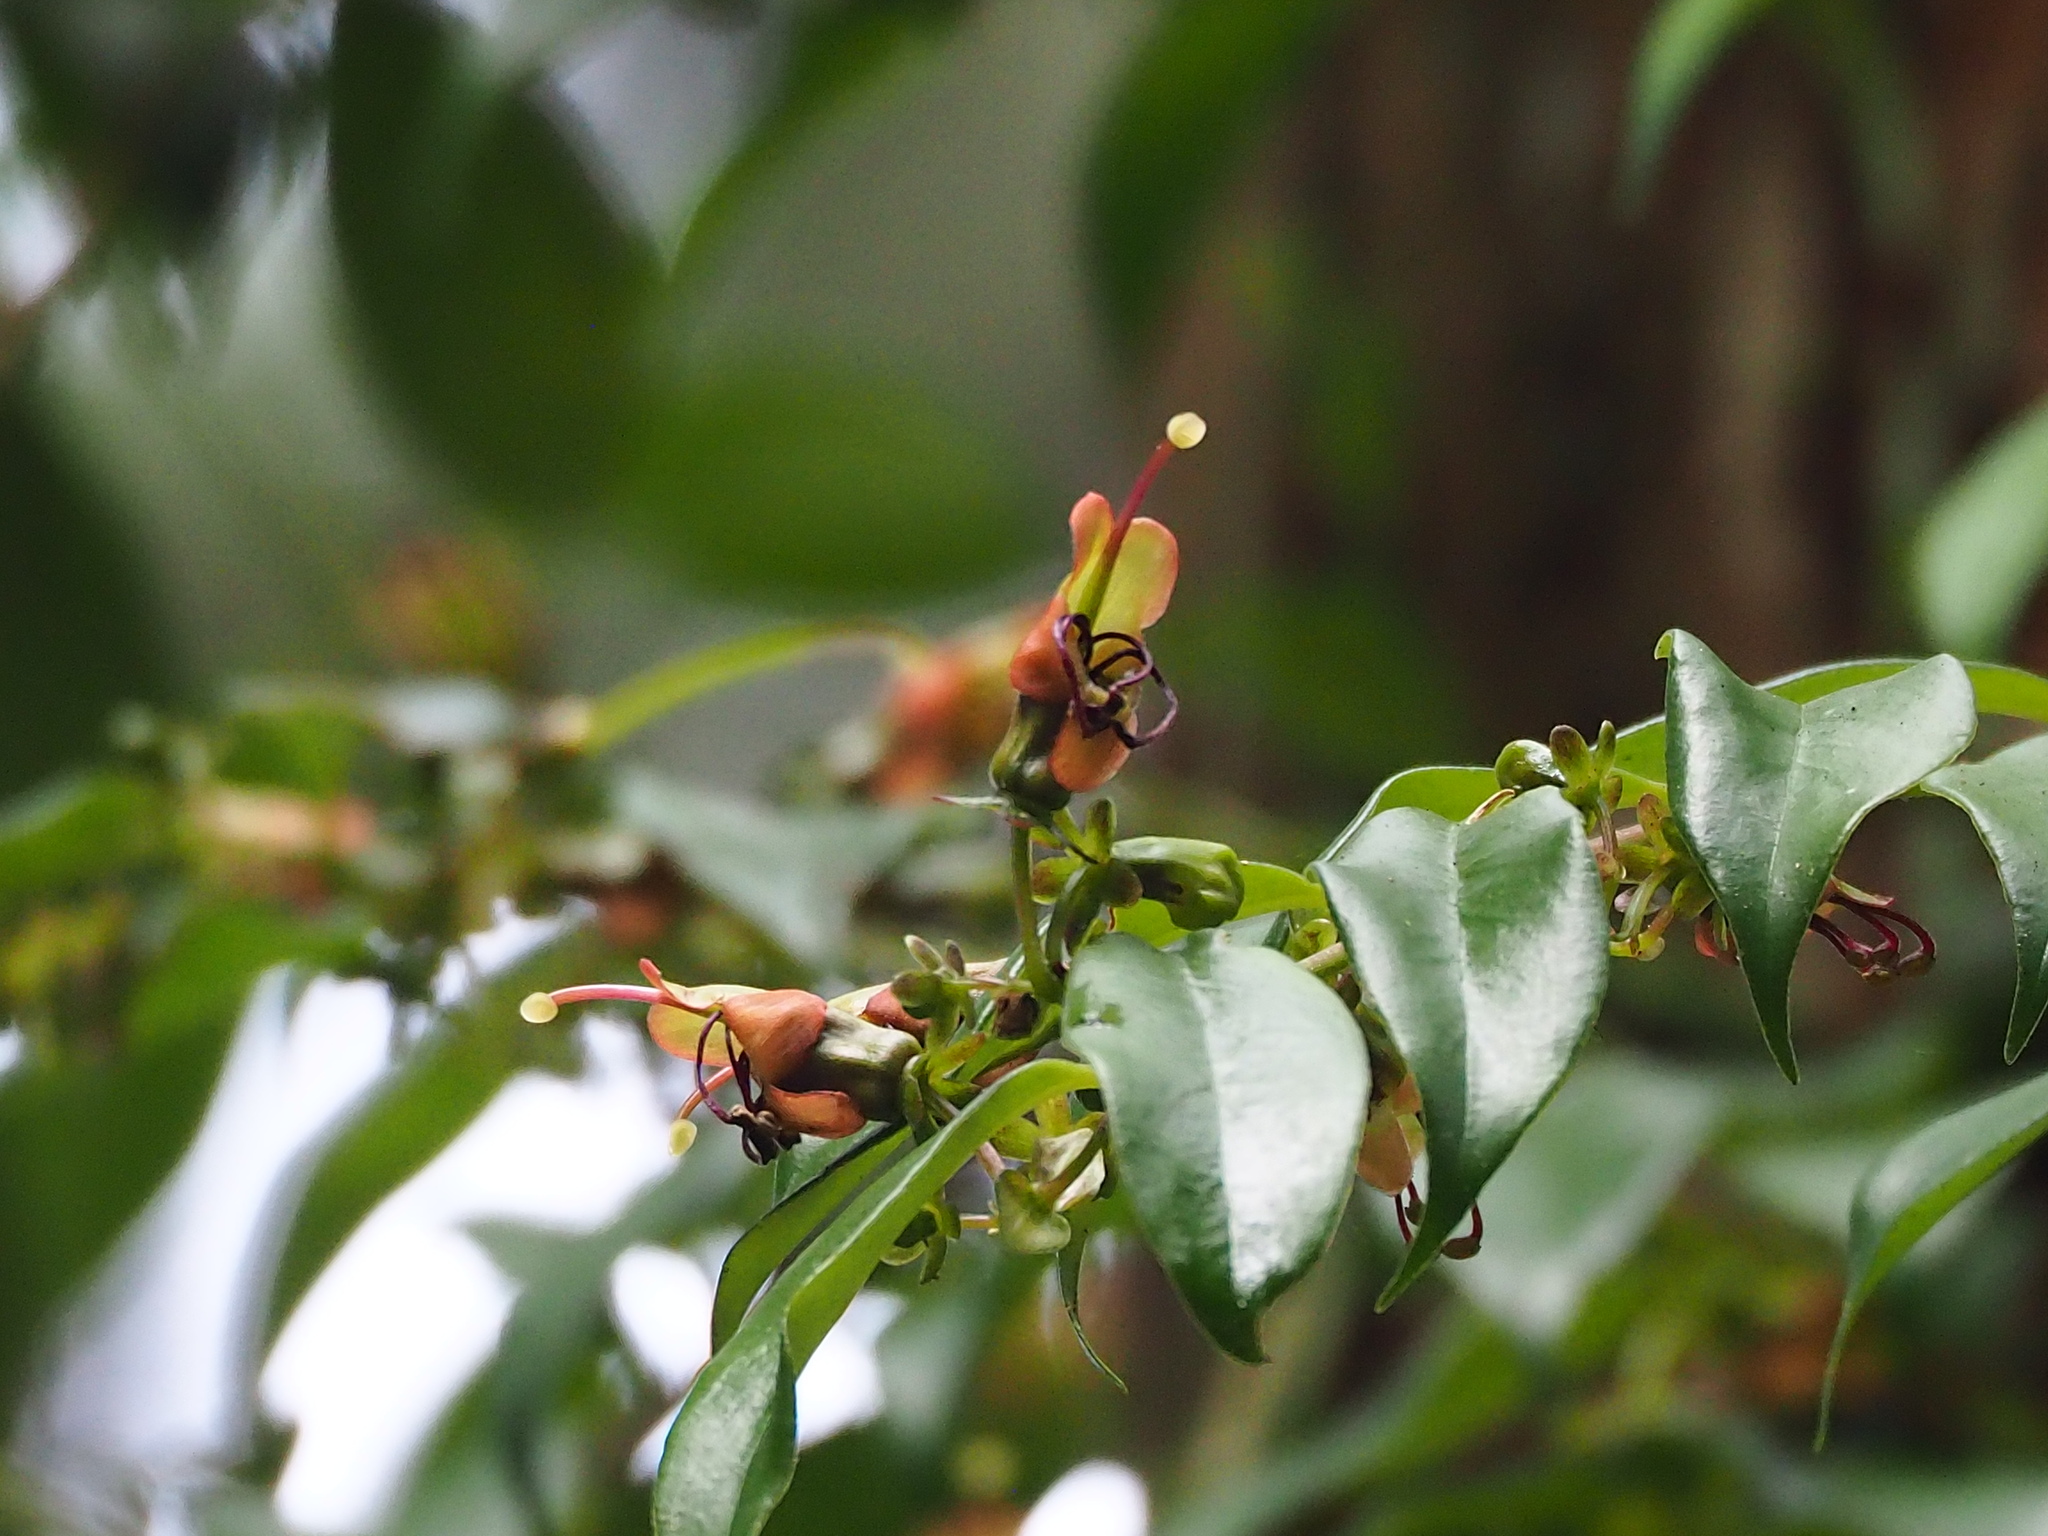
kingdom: Plantae
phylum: Tracheophyta
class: Magnoliopsida
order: Lamiales
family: Gesneriaceae
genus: Aeschynanthus
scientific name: Aeschynanthus acuminatus
